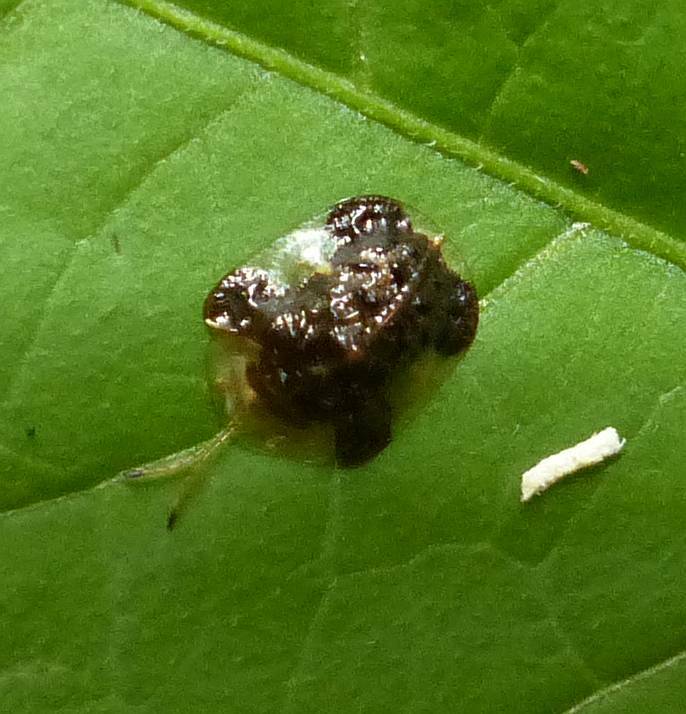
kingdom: Animalia
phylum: Arthropoda
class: Insecta
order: Coleoptera
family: Chrysomelidae
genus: Helocassis
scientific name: Helocassis clavata
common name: Clavate tortoise beetle
